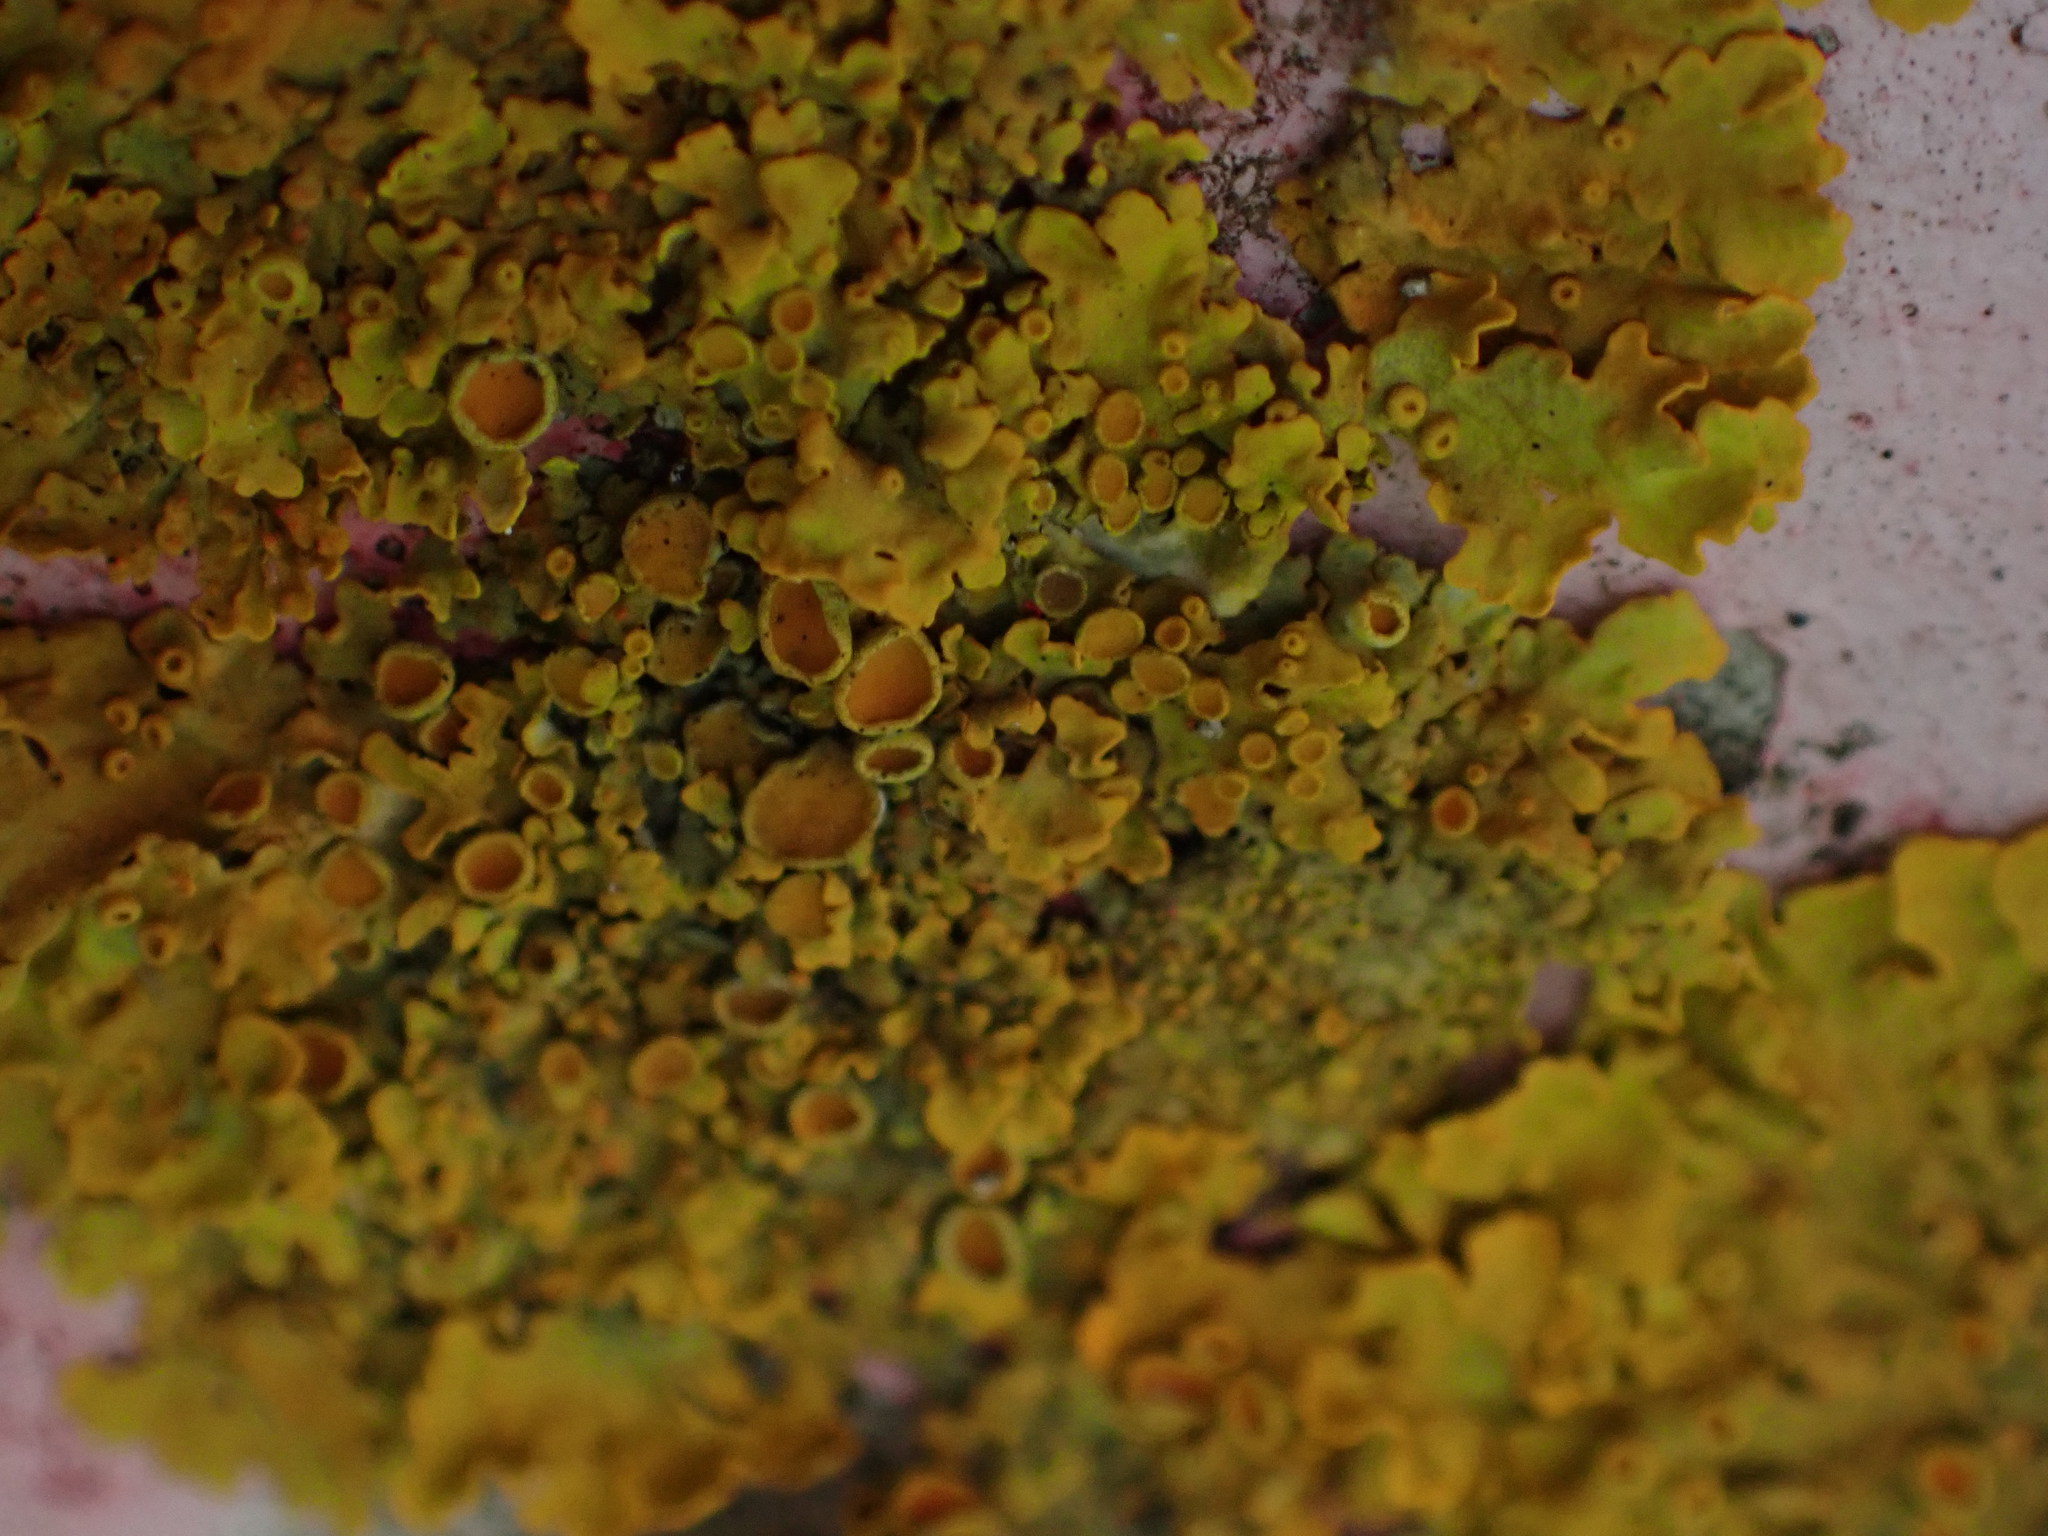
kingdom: Fungi
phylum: Ascomycota
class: Lecanoromycetes
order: Teloschistales
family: Teloschistaceae
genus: Xanthoria
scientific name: Xanthoria parietina
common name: Common orange lichen
